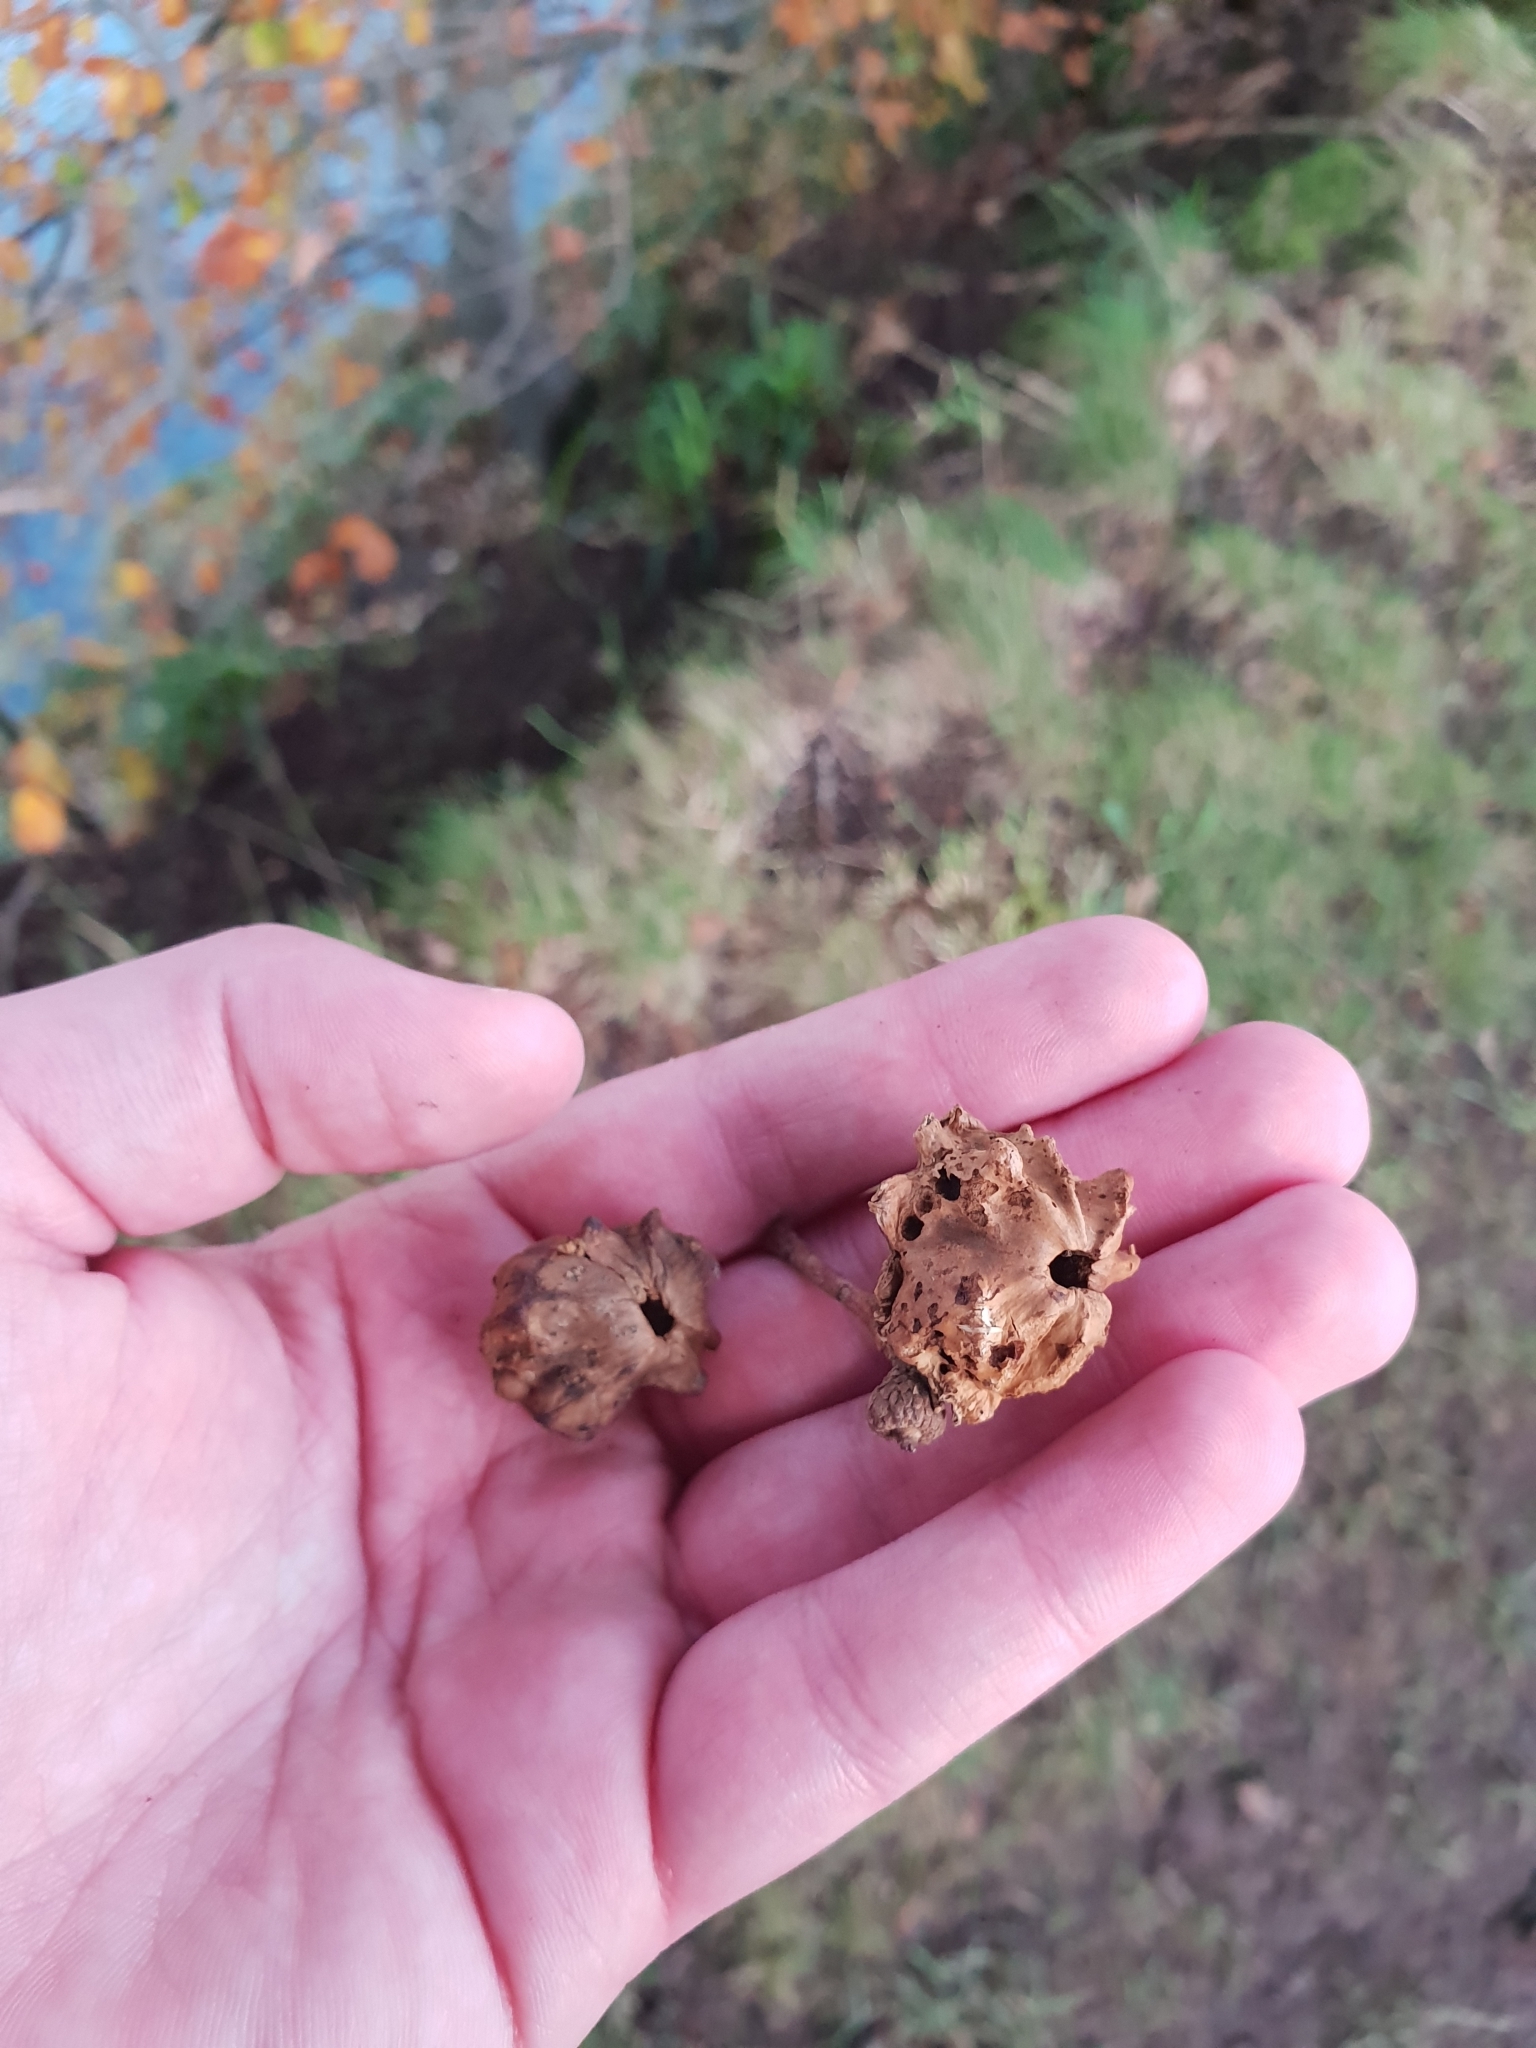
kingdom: Animalia
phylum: Arthropoda
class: Insecta
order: Hymenoptera
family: Cynipidae
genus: Andricus
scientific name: Andricus quercuscalicis
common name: Knopper gall
